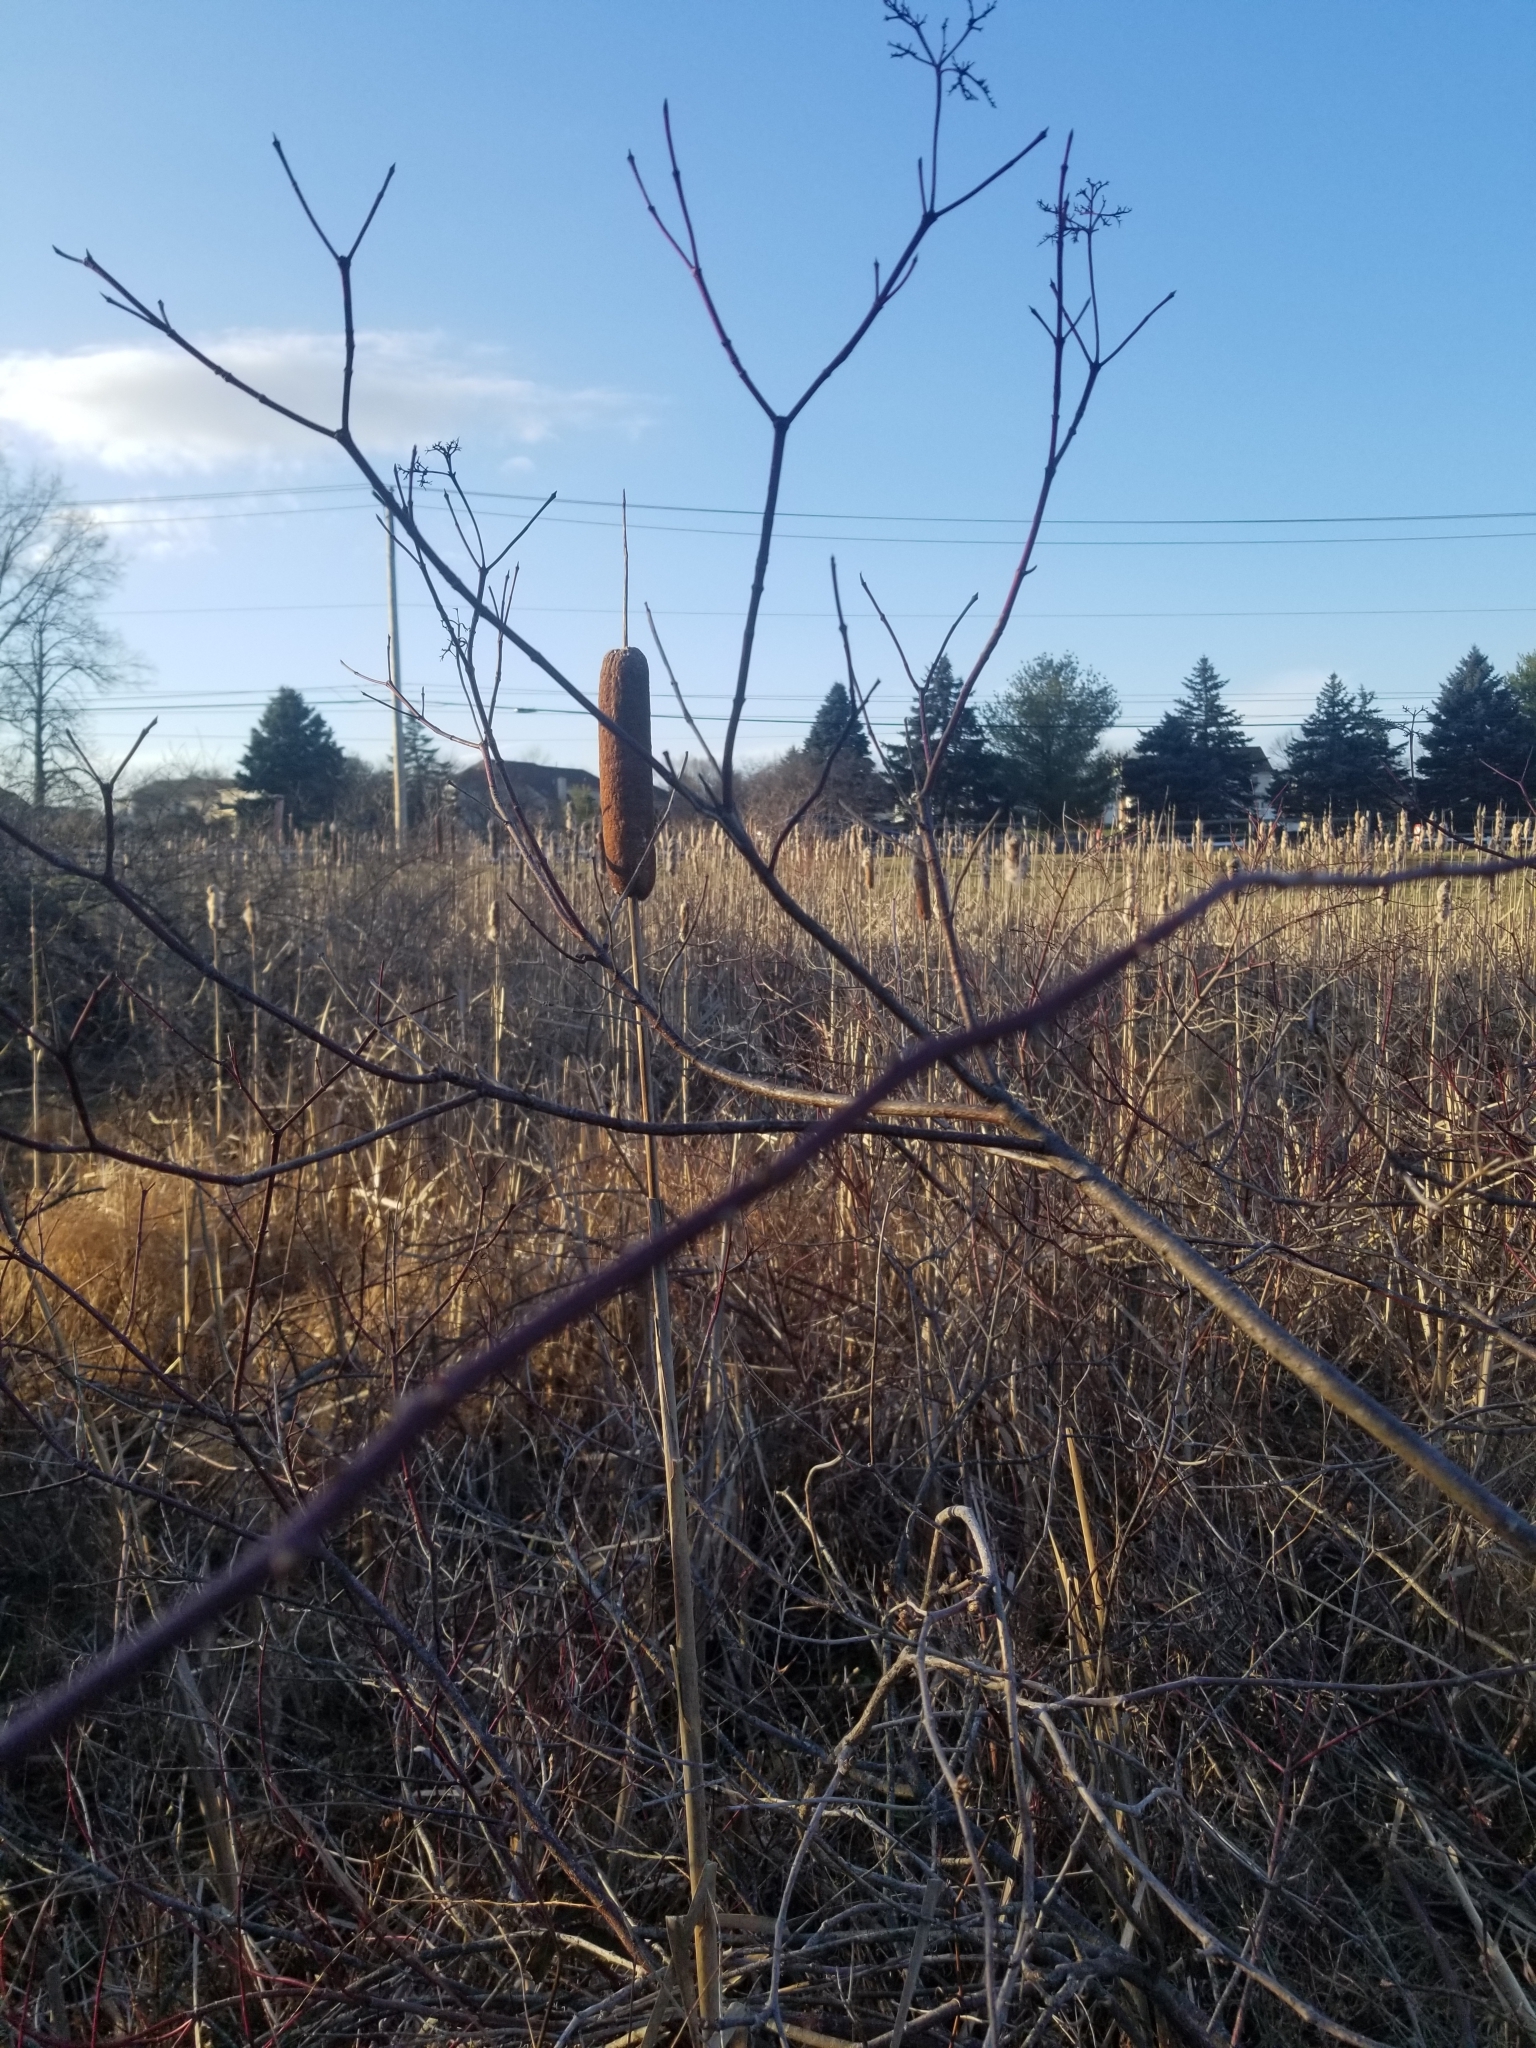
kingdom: Plantae
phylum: Tracheophyta
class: Liliopsida
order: Poales
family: Typhaceae
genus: Typha
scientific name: Typha
